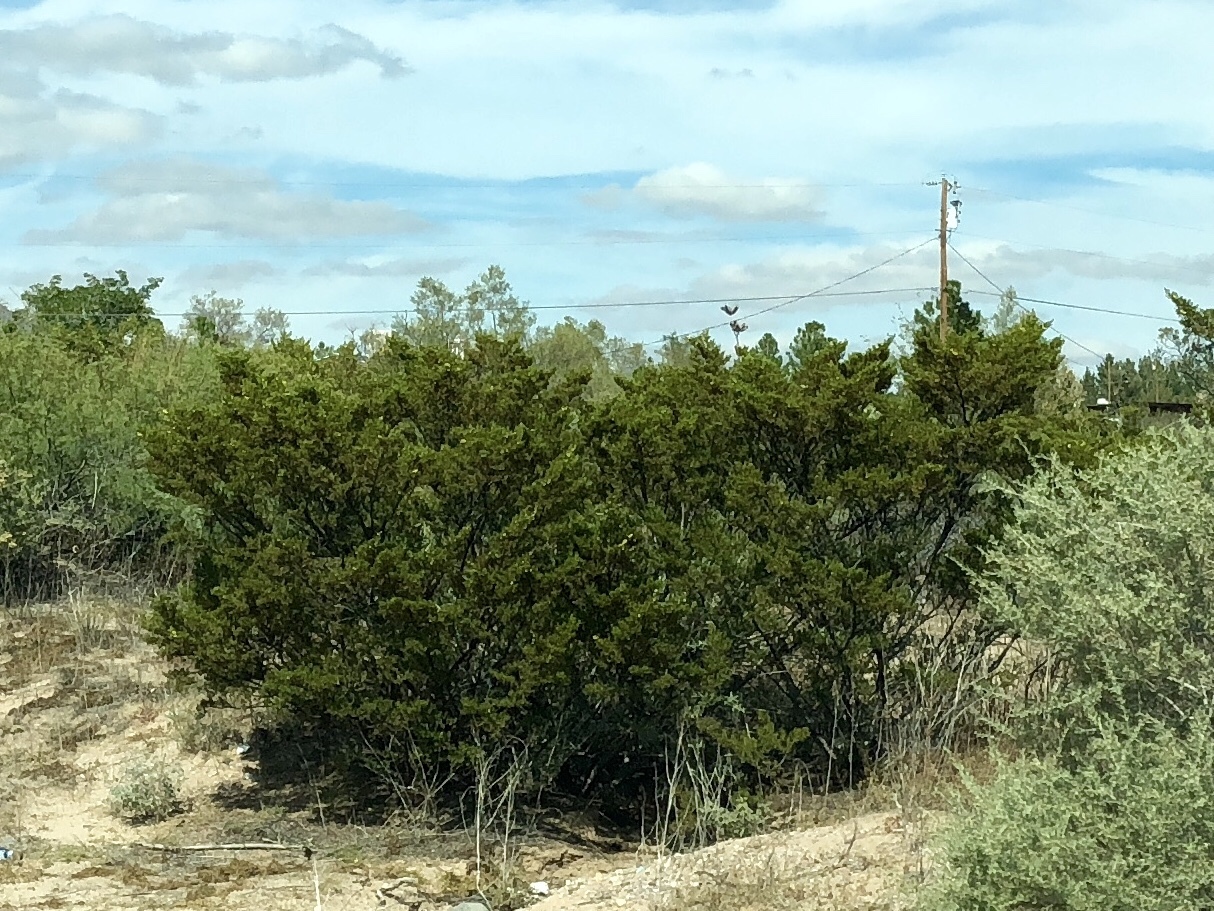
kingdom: Plantae
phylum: Tracheophyta
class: Magnoliopsida
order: Zygophyllales
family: Zygophyllaceae
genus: Larrea
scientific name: Larrea tridentata
